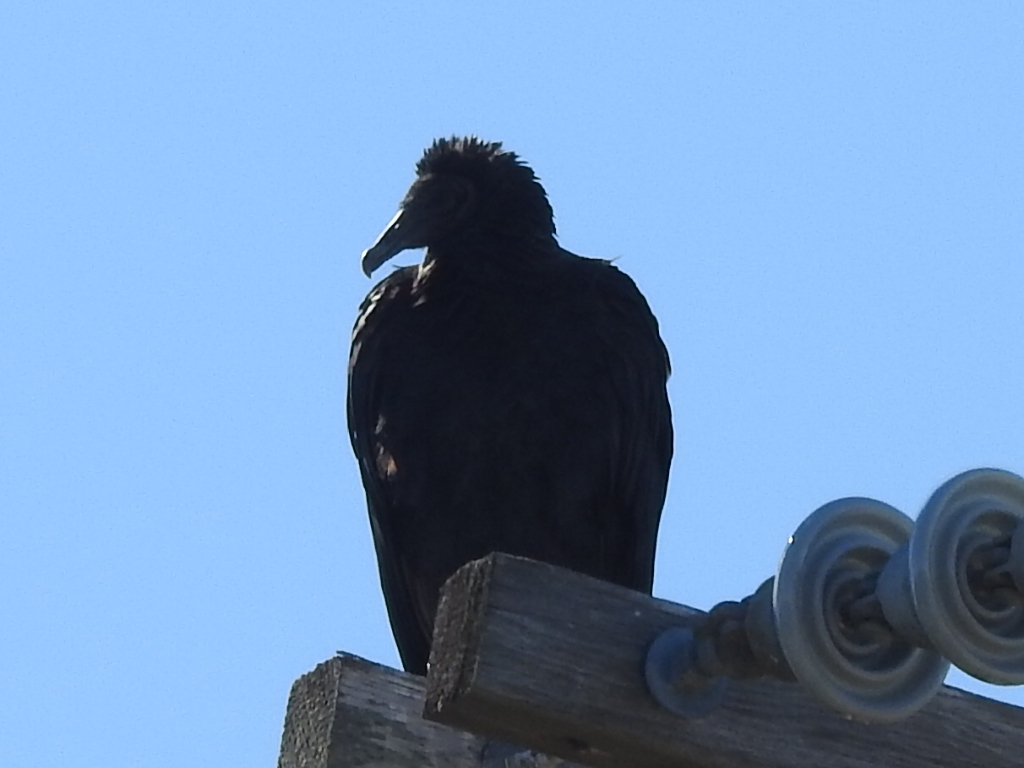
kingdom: Animalia
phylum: Chordata
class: Aves
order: Accipitriformes
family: Cathartidae
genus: Coragyps
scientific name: Coragyps atratus
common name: Black vulture
